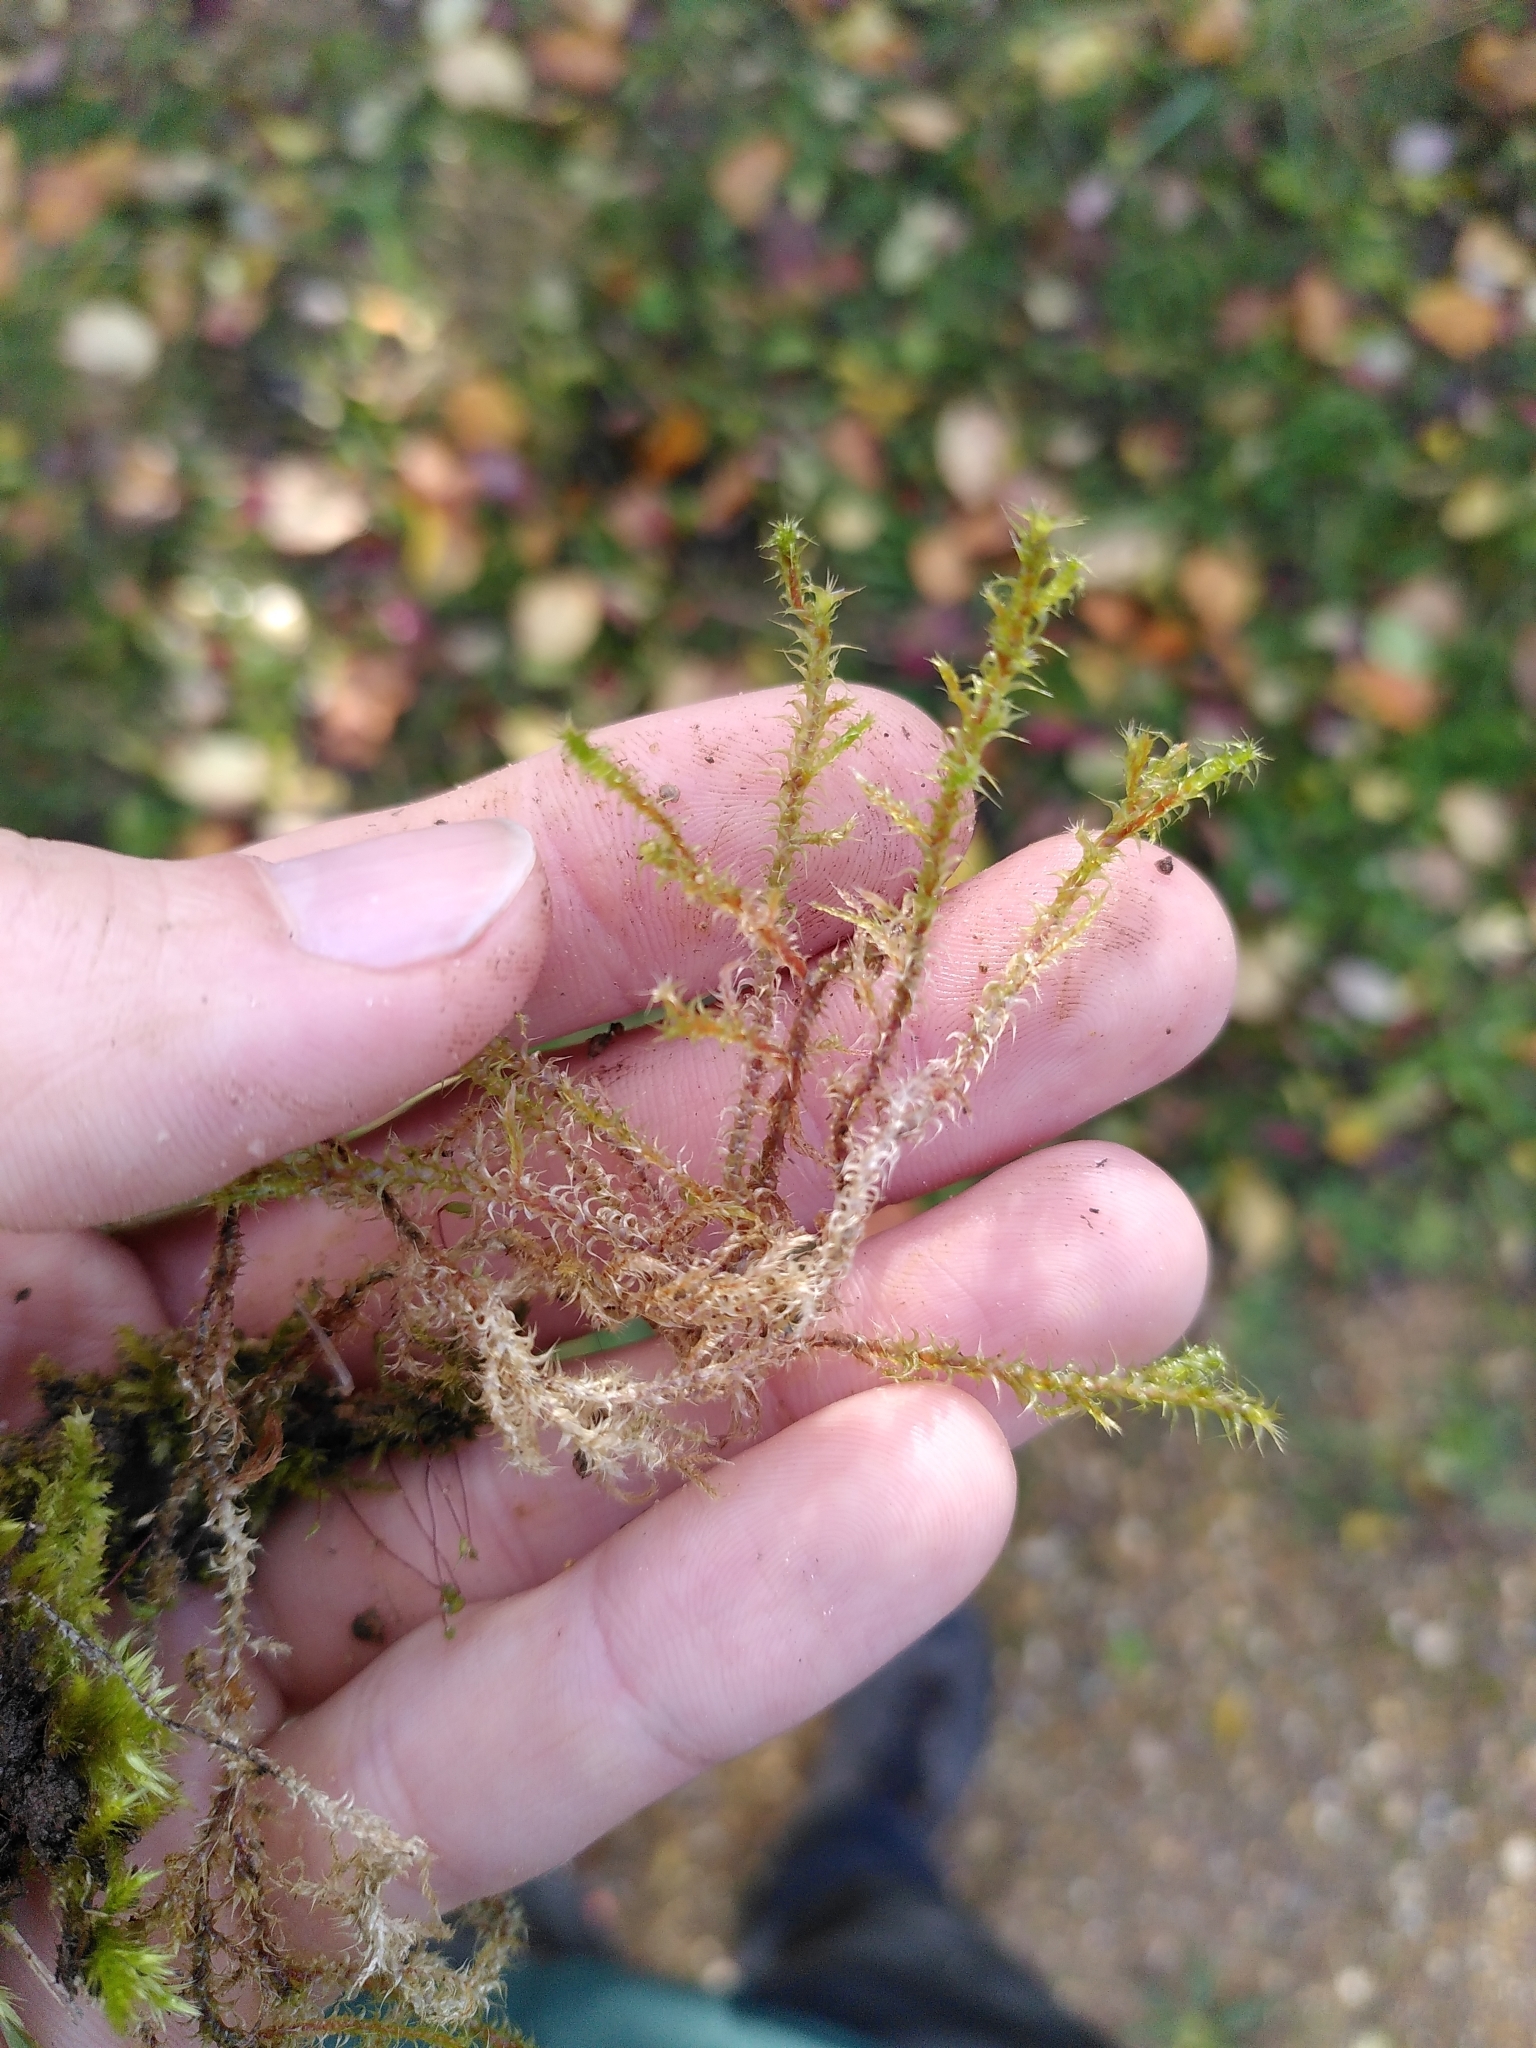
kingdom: Plantae
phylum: Bryophyta
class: Bryopsida
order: Hypnales
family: Hylocomiaceae
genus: Rhytidiadelphus
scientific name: Rhytidiadelphus squarrosus
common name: Springy turf-moss
